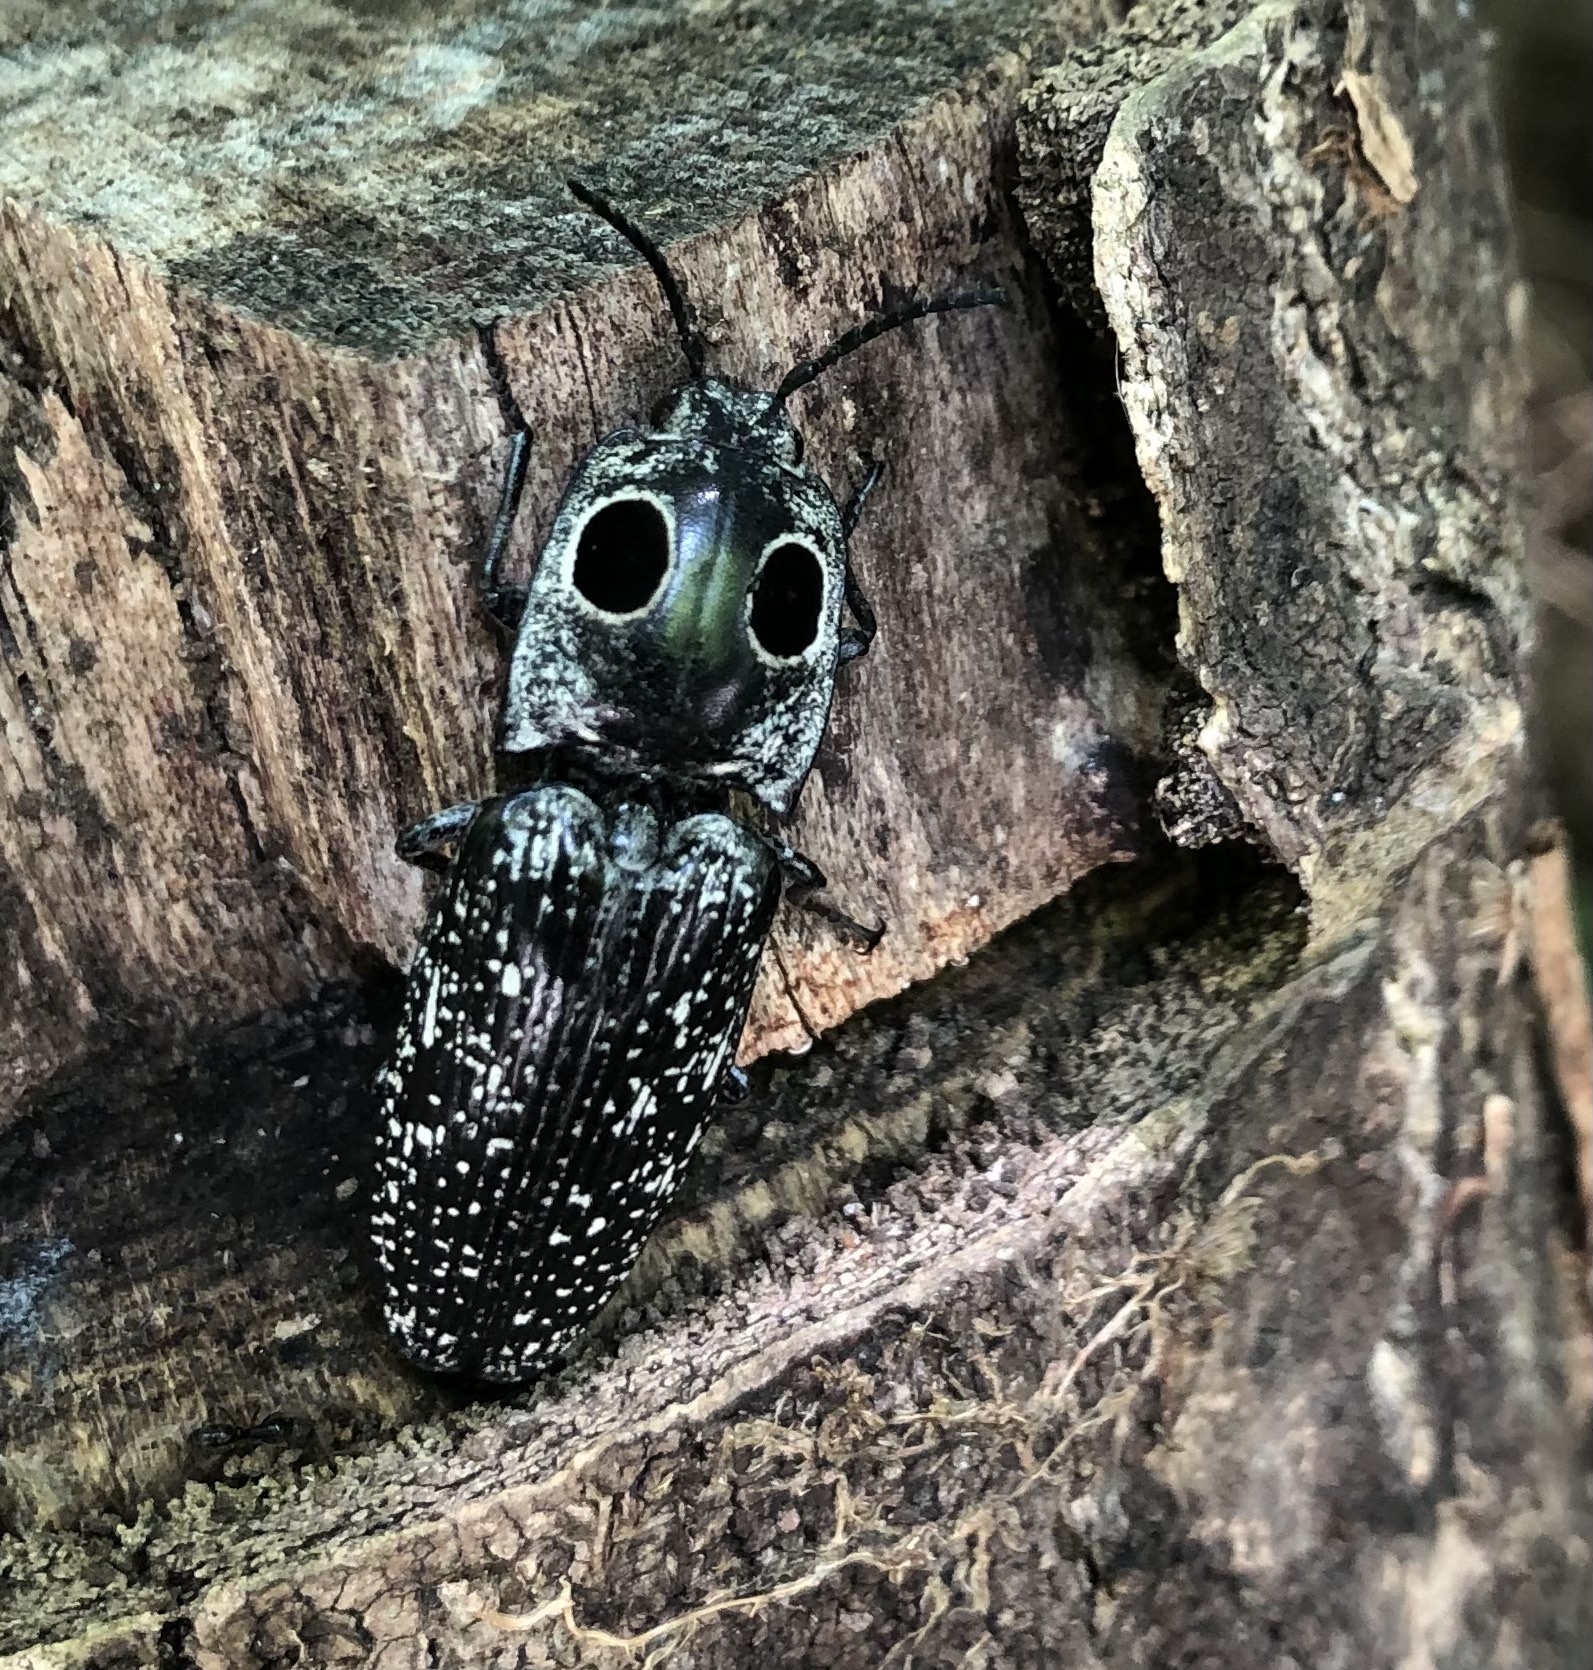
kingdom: Animalia
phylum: Arthropoda
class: Insecta
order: Coleoptera
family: Elateridae
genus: Alaus
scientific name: Alaus oculatus
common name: Eastern eyed click beetle
